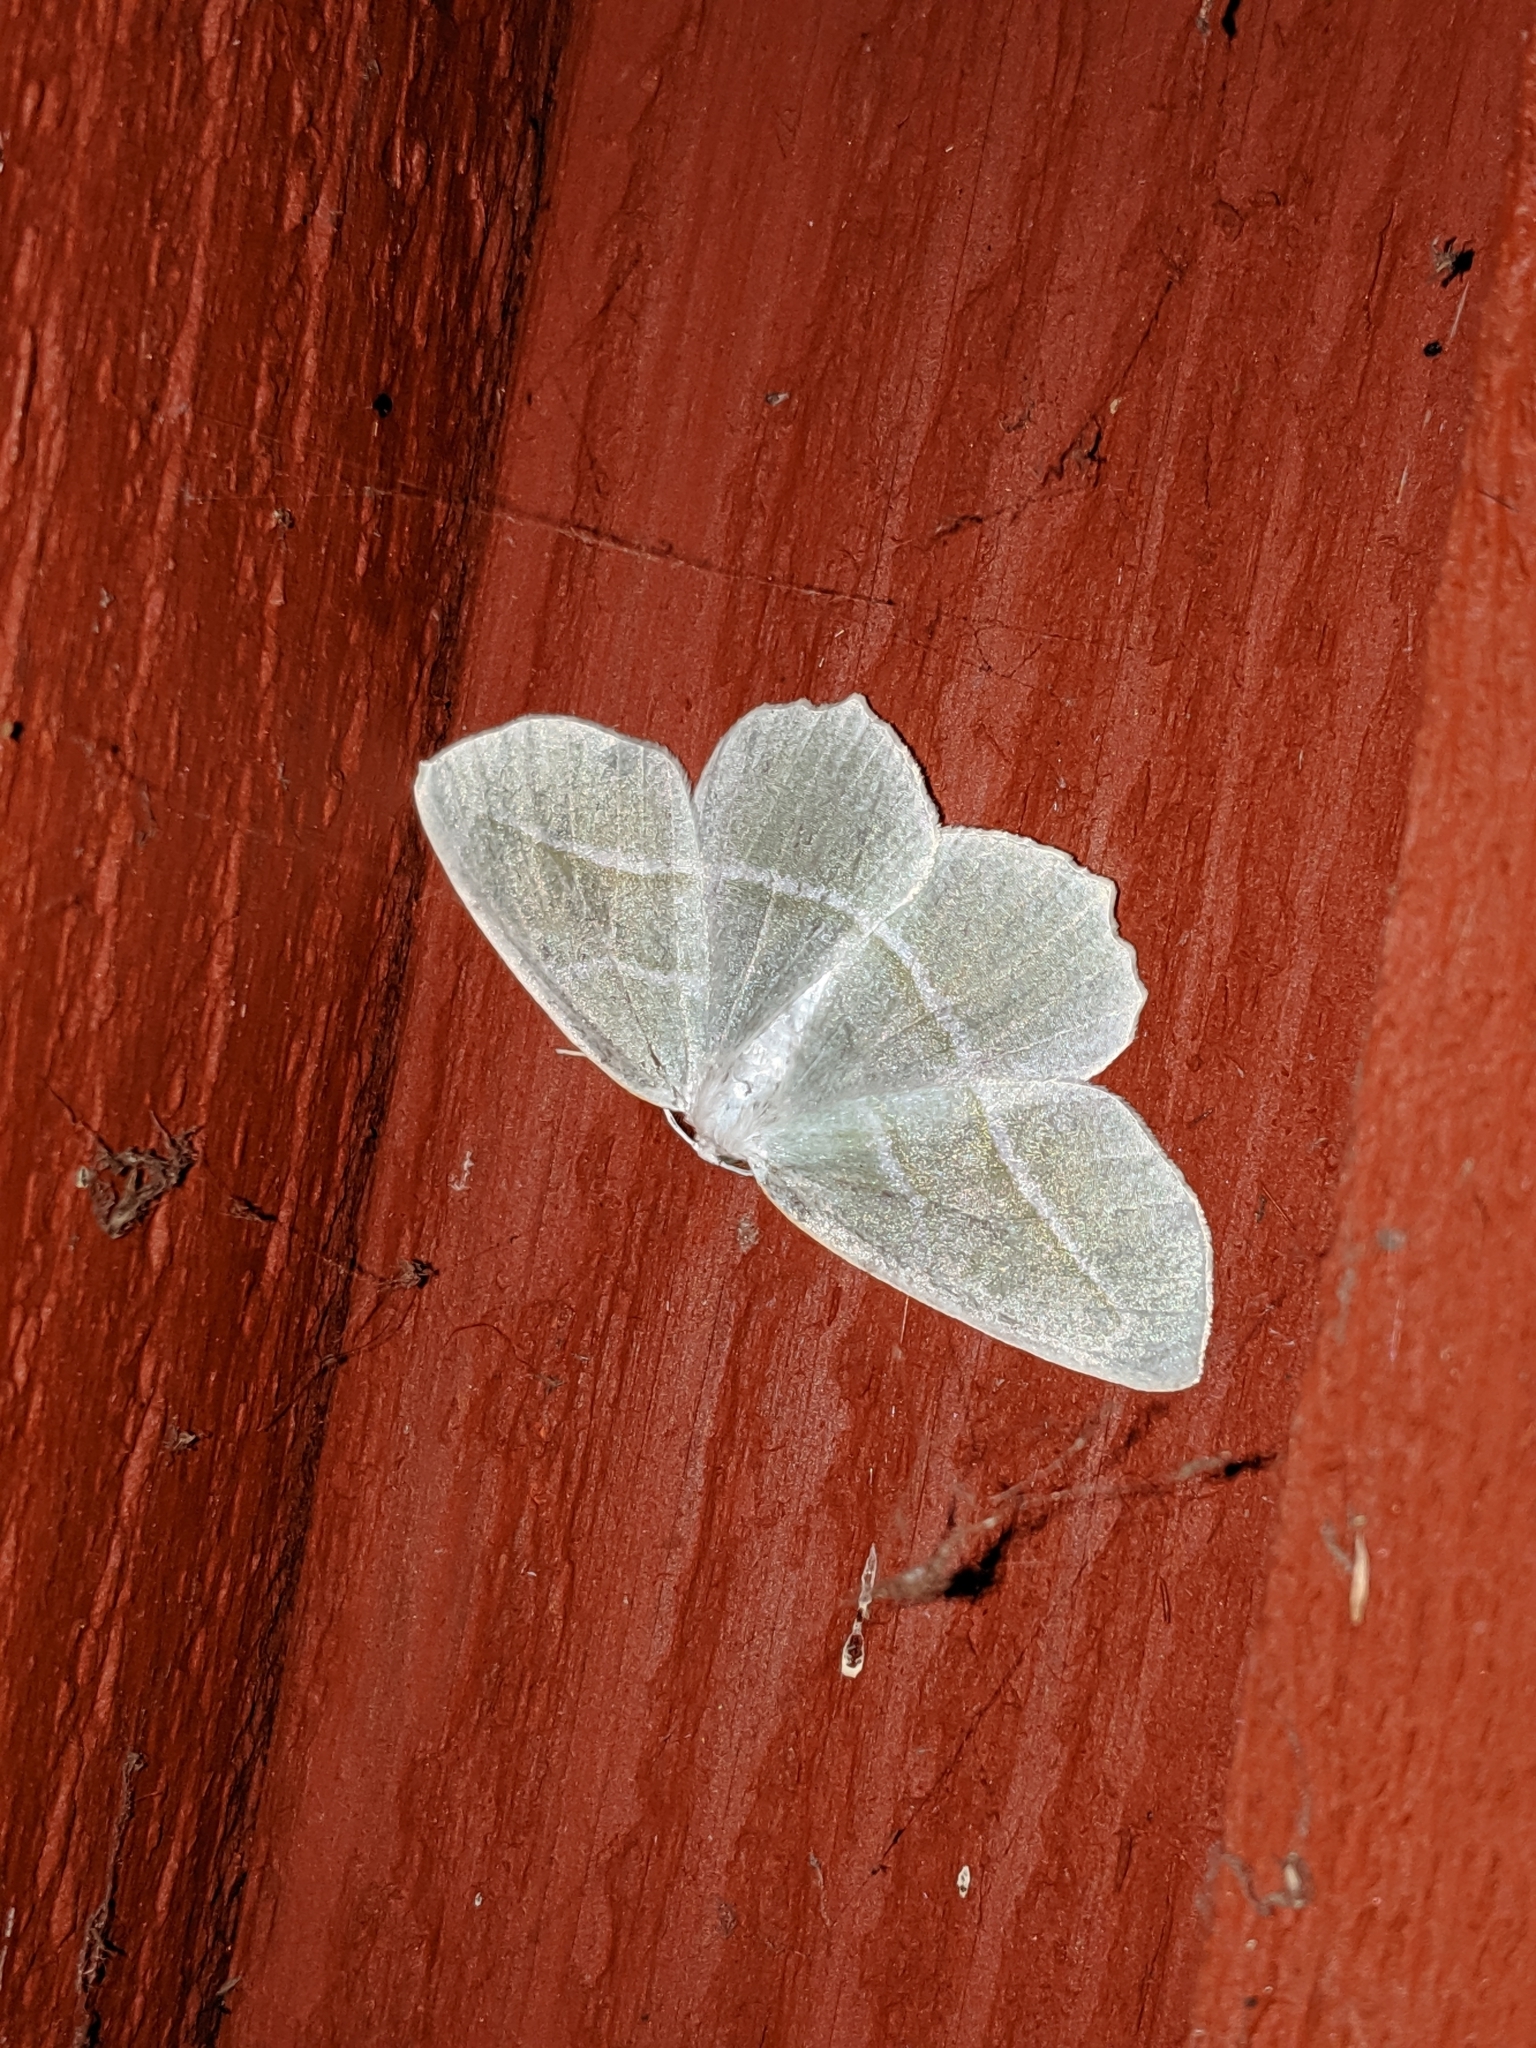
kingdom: Animalia
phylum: Arthropoda
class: Insecta
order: Lepidoptera
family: Geometridae
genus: Campaea
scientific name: Campaea perlata
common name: Fringed looper
